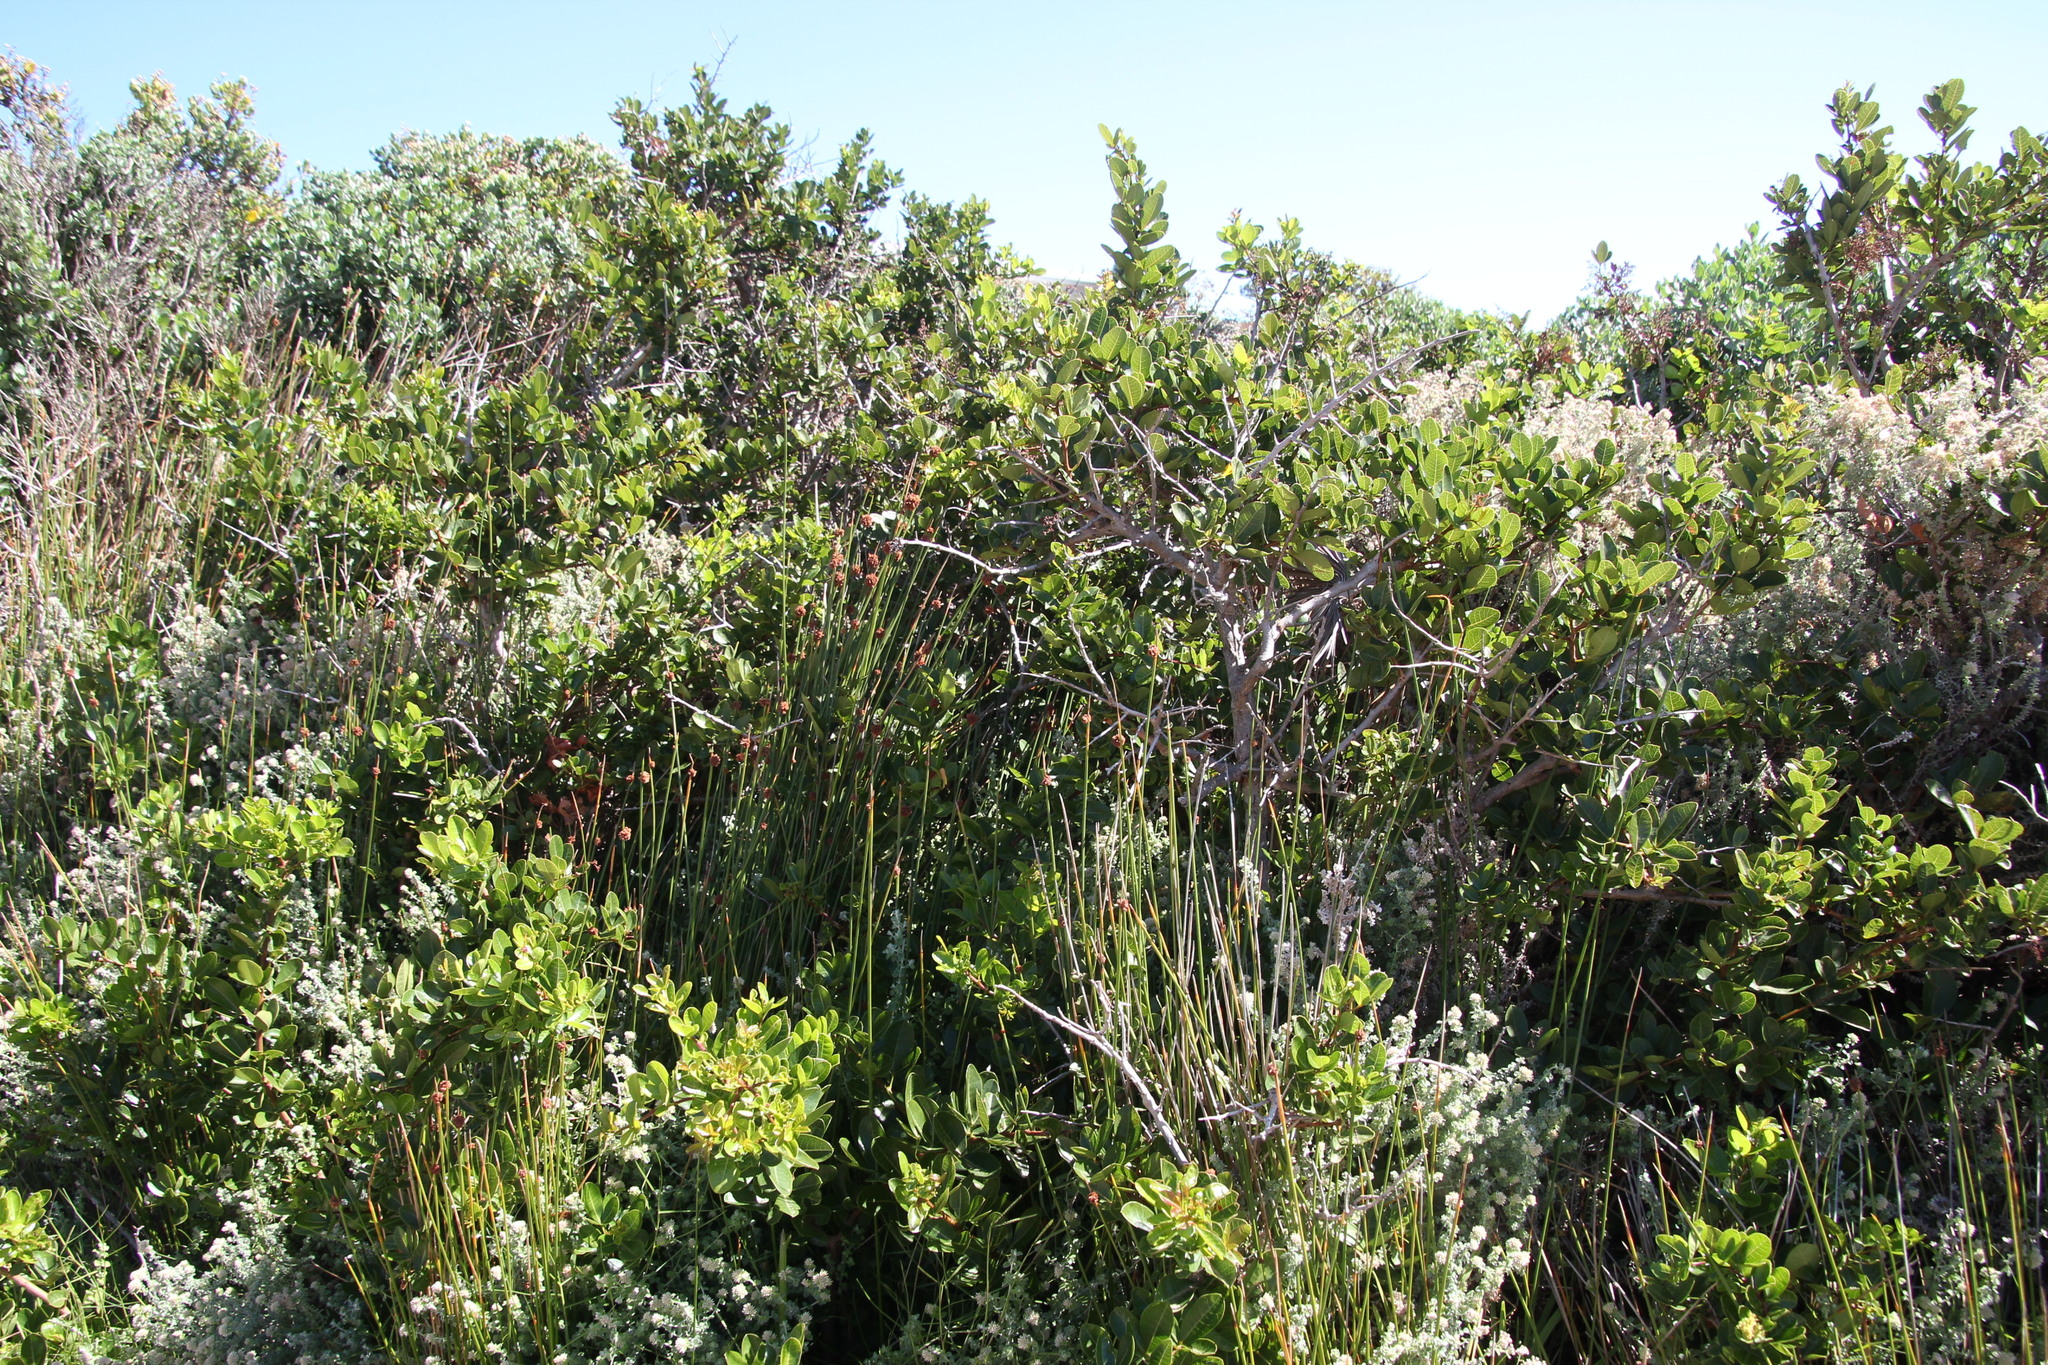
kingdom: Plantae
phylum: Tracheophyta
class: Magnoliopsida
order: Sapindales
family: Anacardiaceae
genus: Searsia
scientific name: Searsia laevigata
